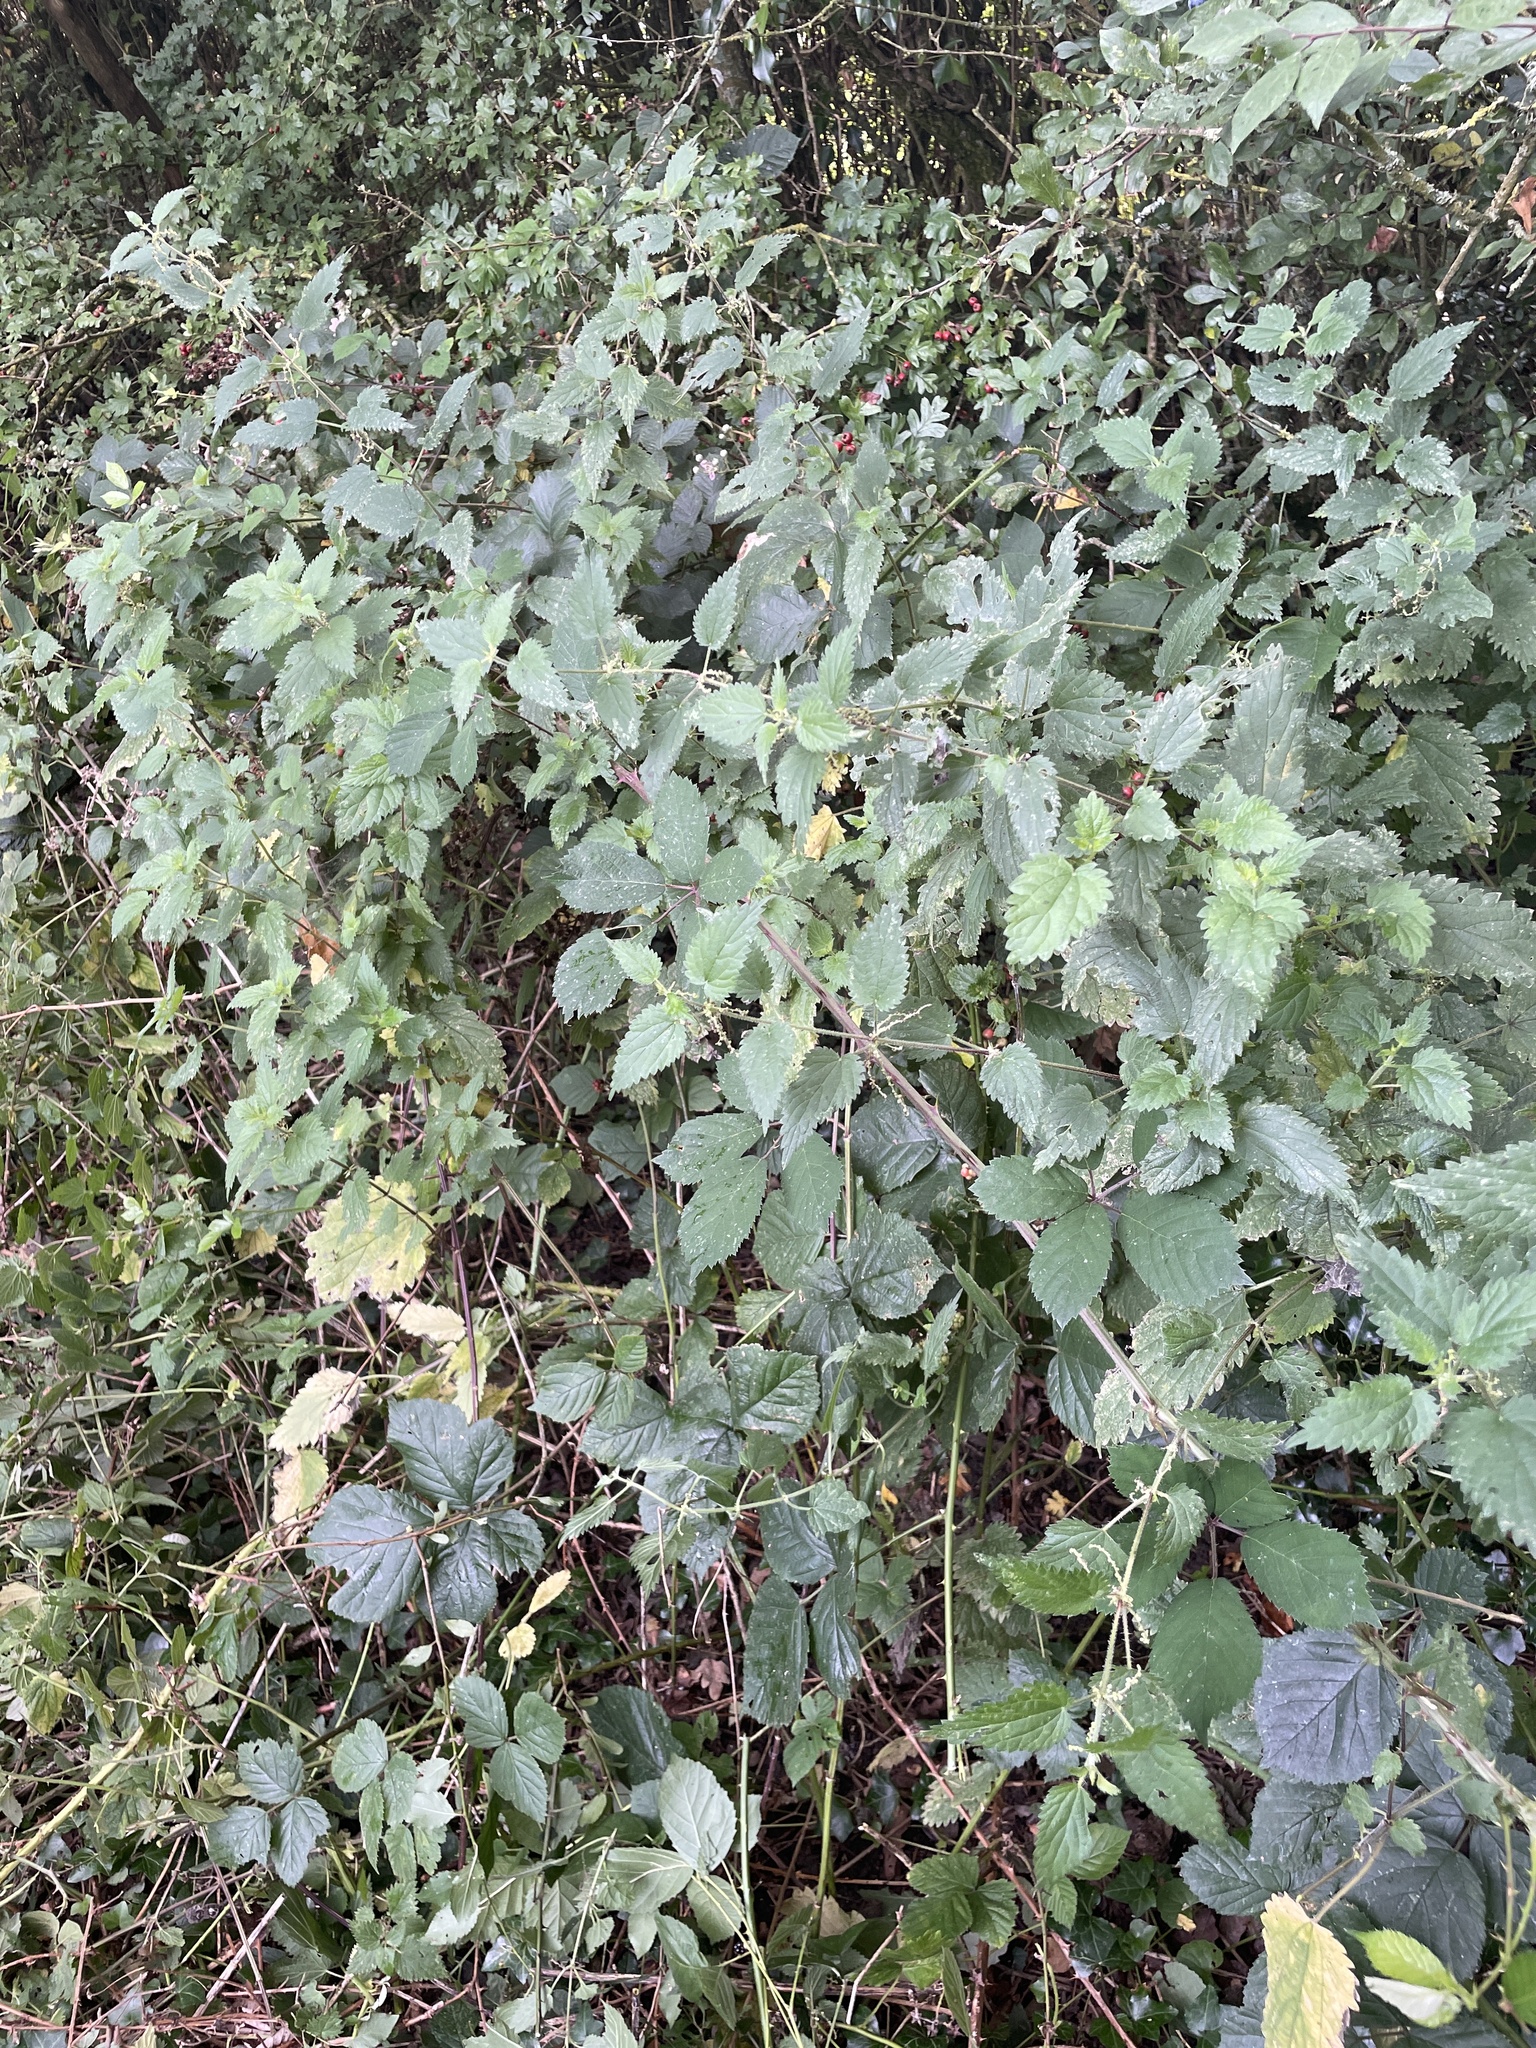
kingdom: Plantae
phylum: Tracheophyta
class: Magnoliopsida
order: Rosales
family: Urticaceae
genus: Urtica
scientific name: Urtica dioica
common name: Common nettle
